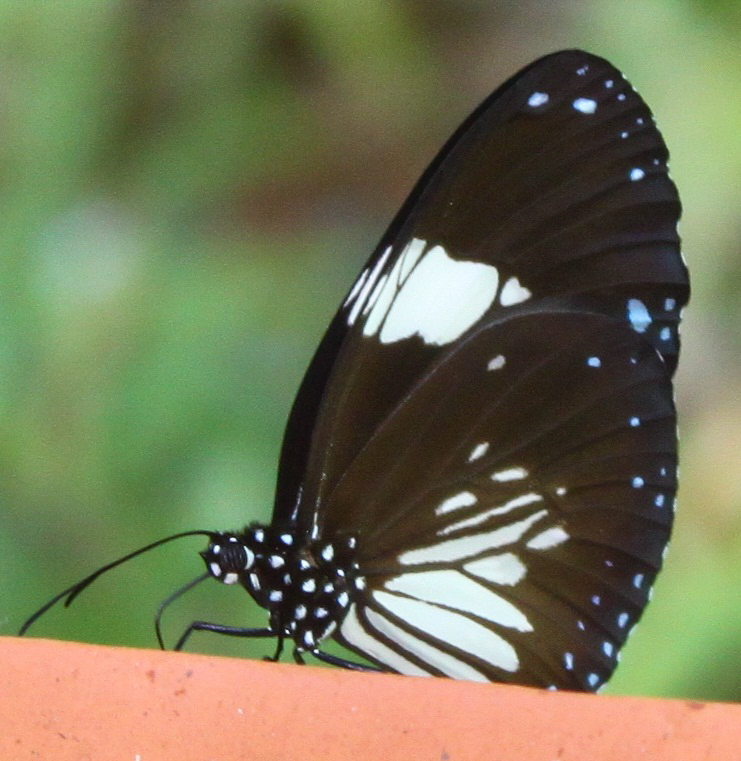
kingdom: Animalia
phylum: Arthropoda
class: Insecta
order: Lepidoptera
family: Nymphalidae
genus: Euploea
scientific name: Euploea radamanthus
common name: Magpie crow butterfly
